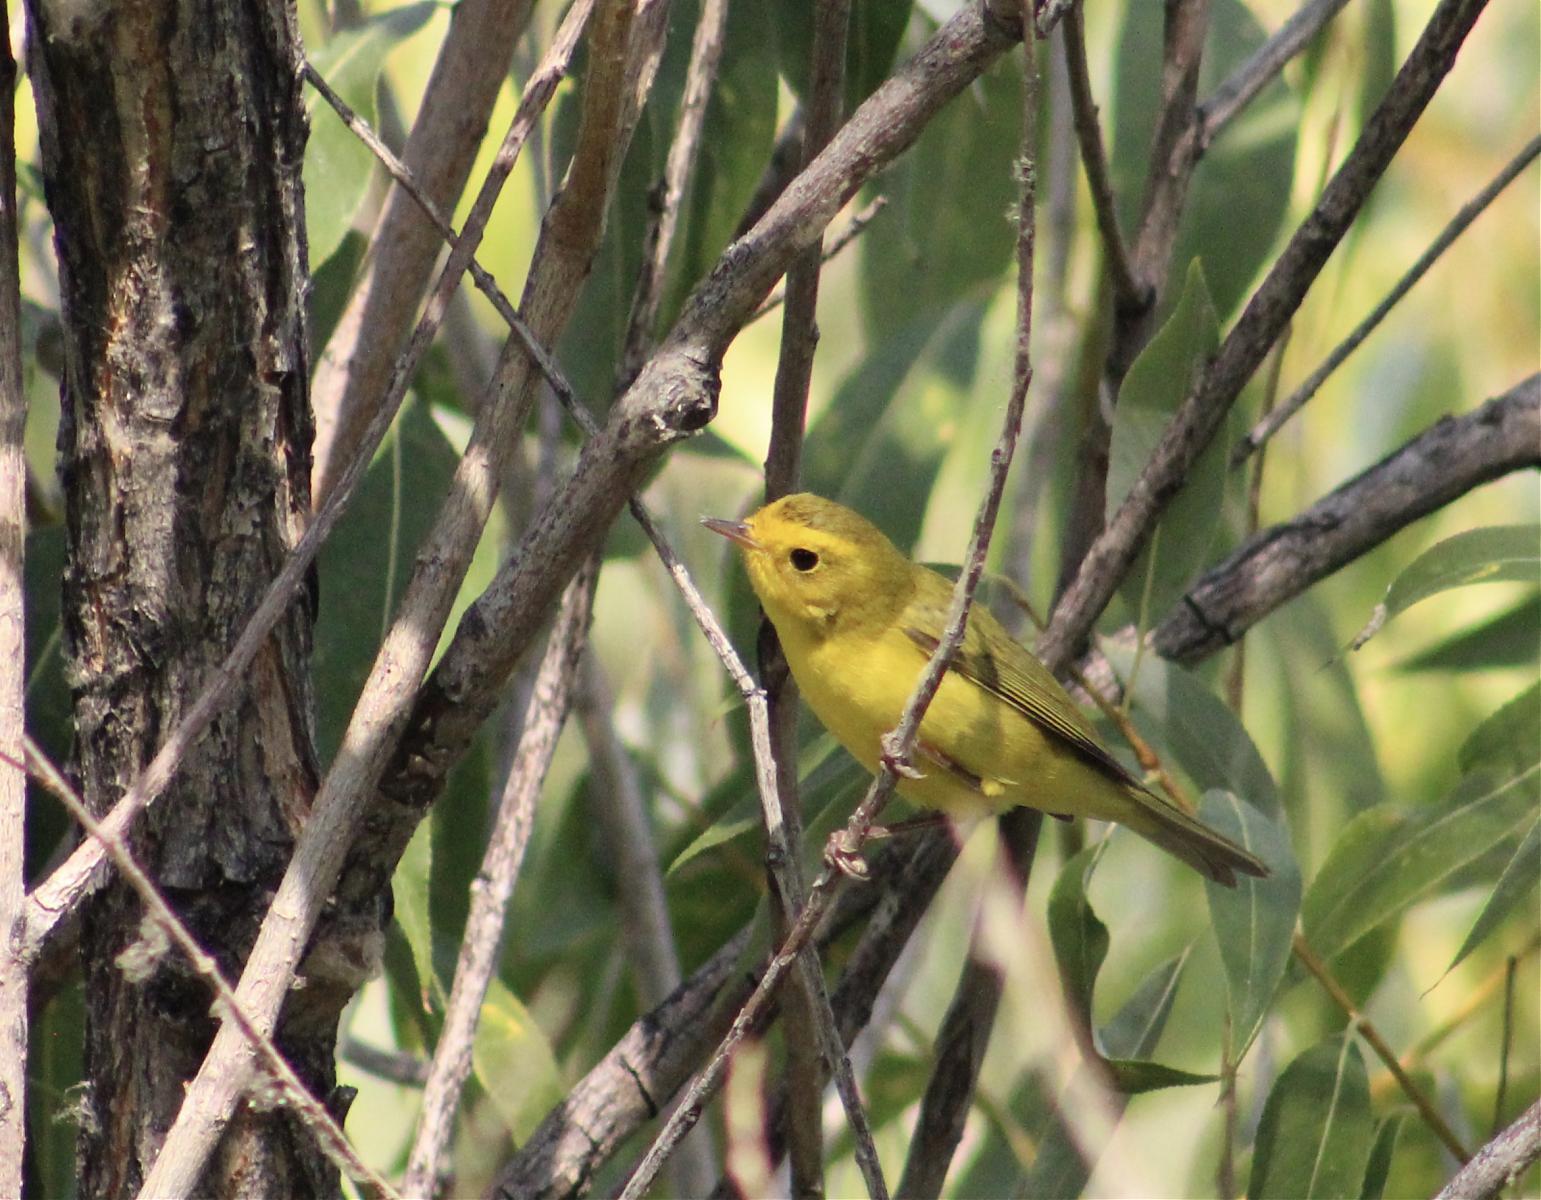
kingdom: Animalia
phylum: Chordata
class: Aves
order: Passeriformes
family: Parulidae
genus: Cardellina
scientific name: Cardellina pusilla
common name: Wilson's warbler
